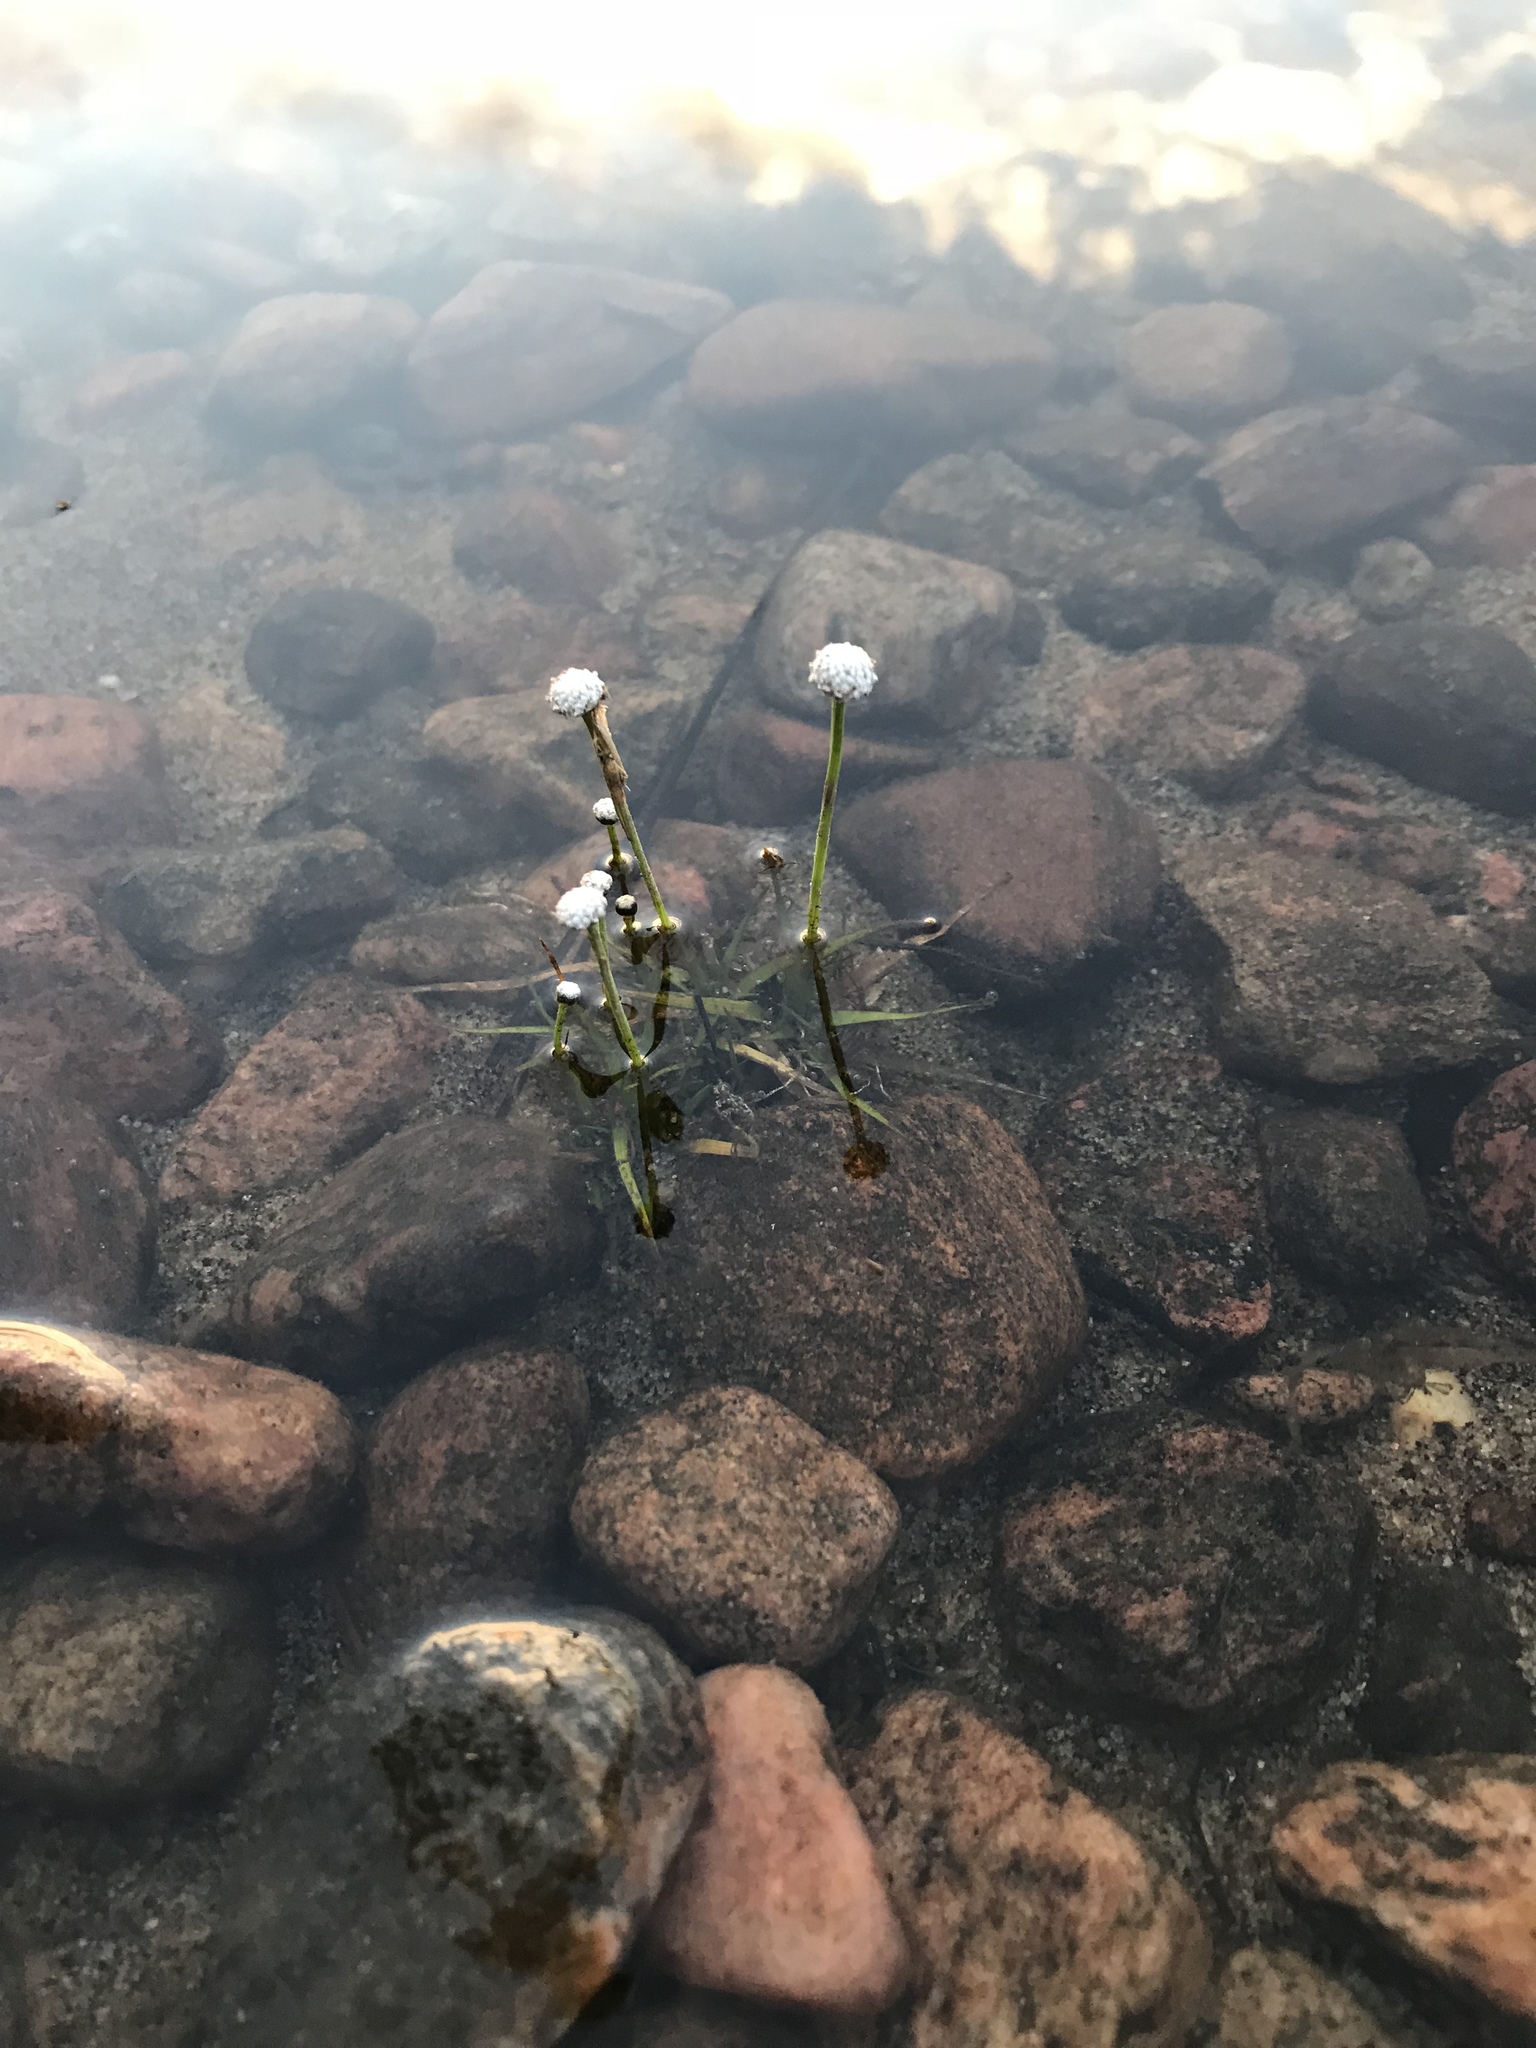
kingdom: Plantae
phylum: Tracheophyta
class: Liliopsida
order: Poales
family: Eriocaulaceae
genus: Eriocaulon
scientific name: Eriocaulon aquaticum
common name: Pipewort
